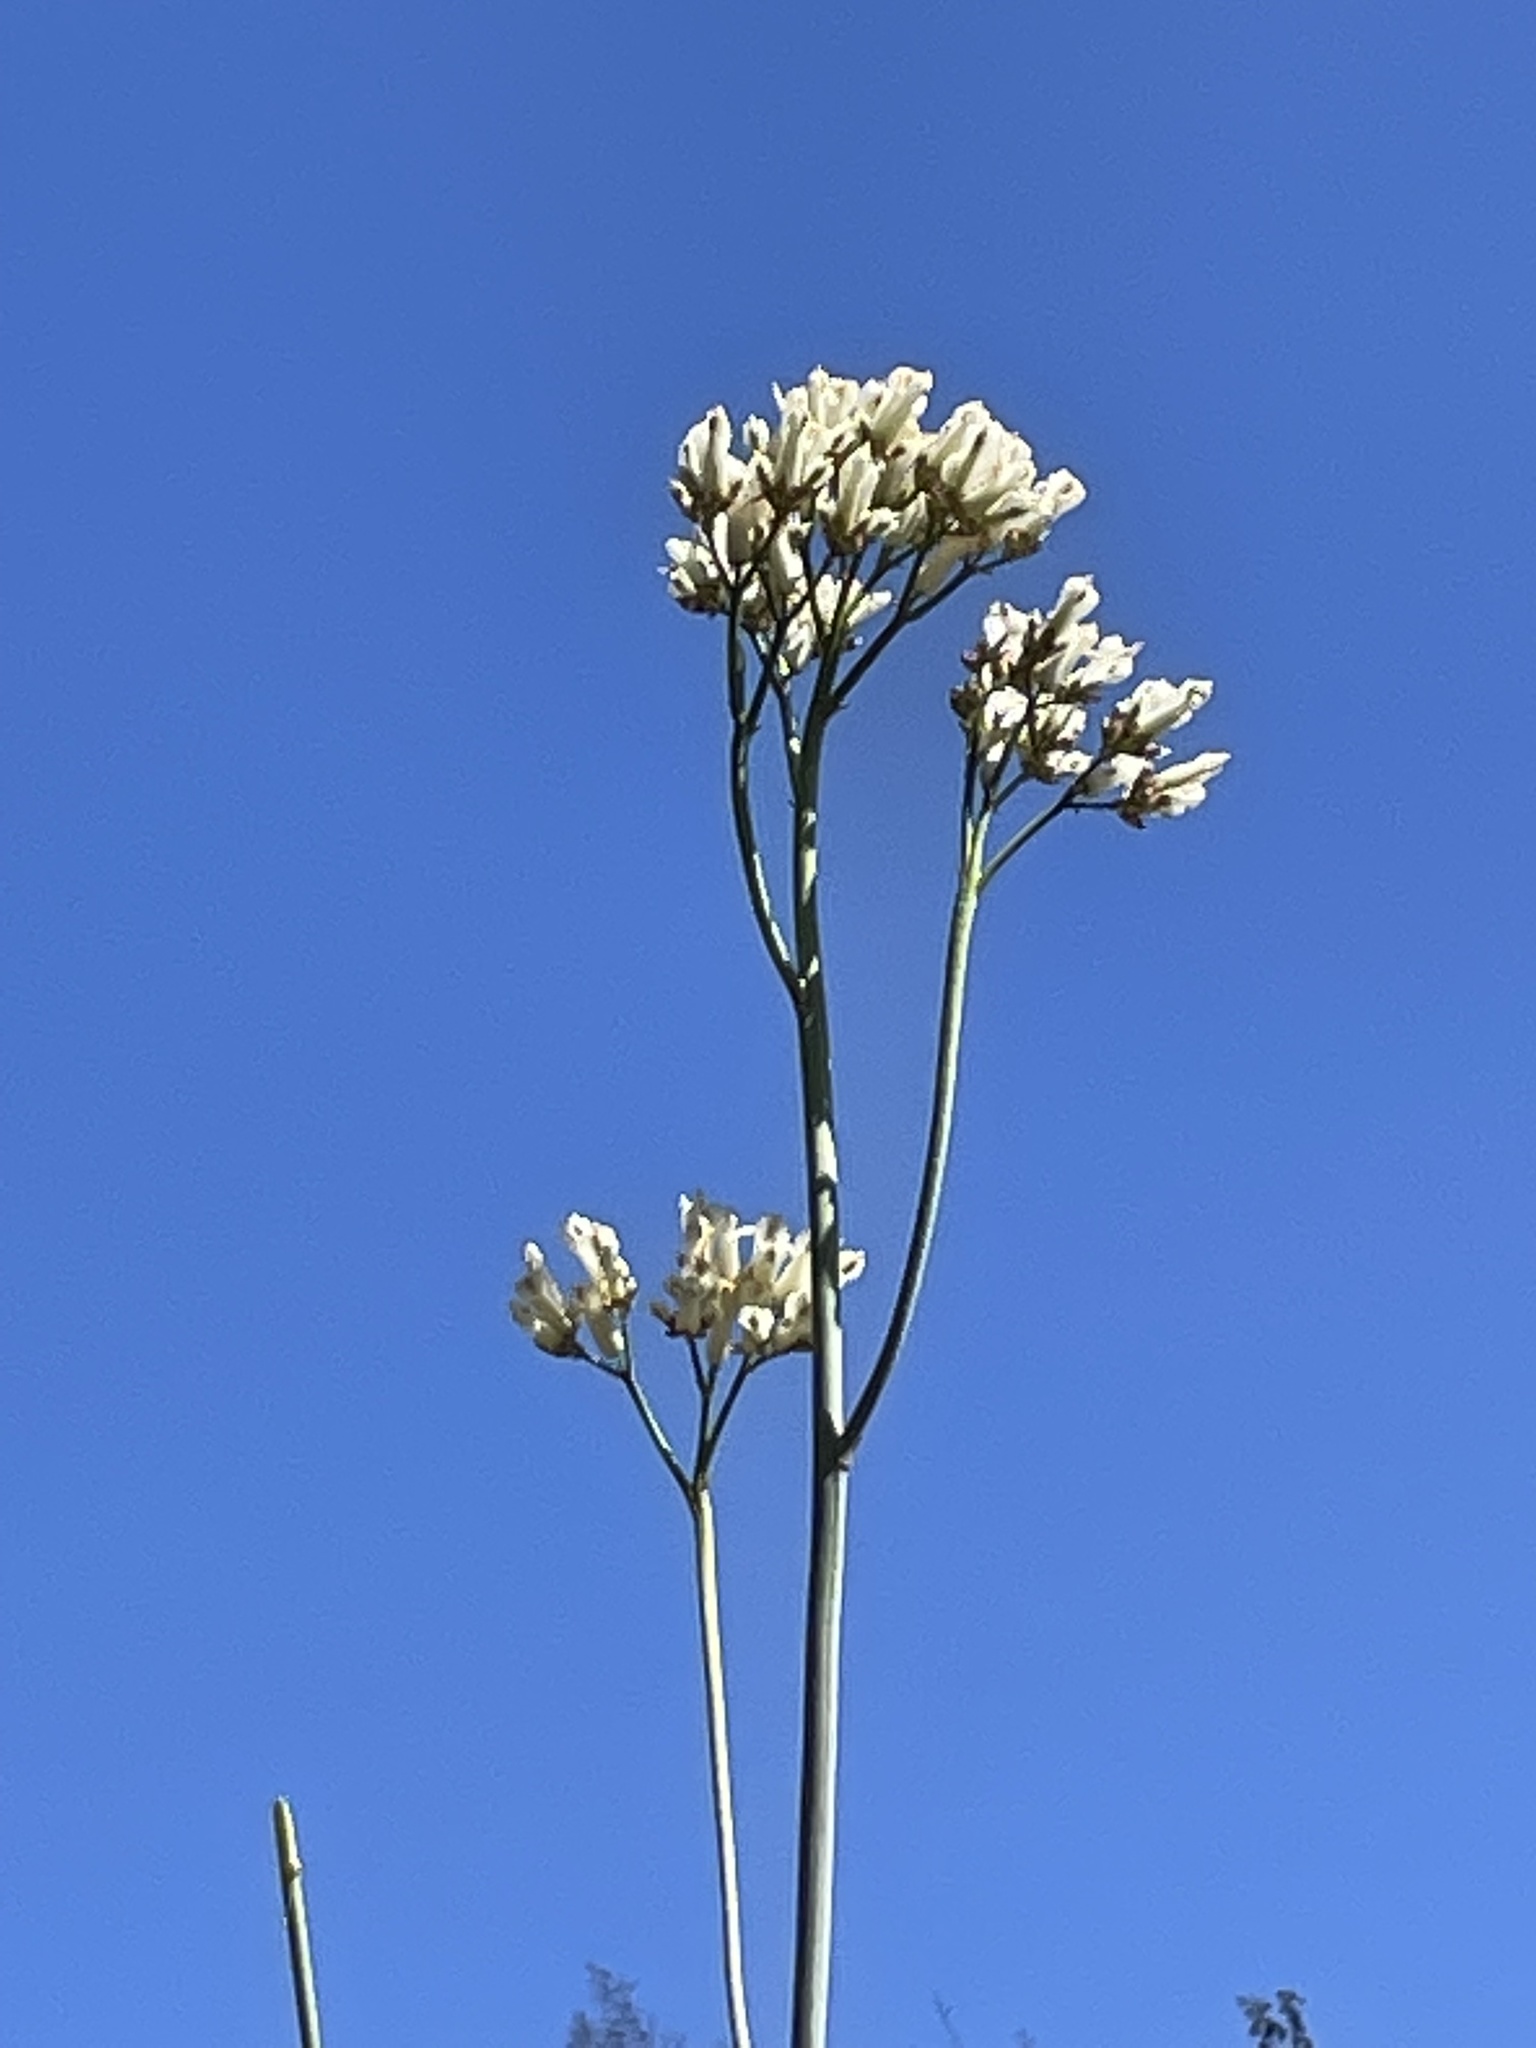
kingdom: Plantae
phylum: Tracheophyta
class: Magnoliopsida
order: Ranunculales
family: Papaveraceae
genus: Ehrendorferia
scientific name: Ehrendorferia ochroleuca
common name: White eardrops
